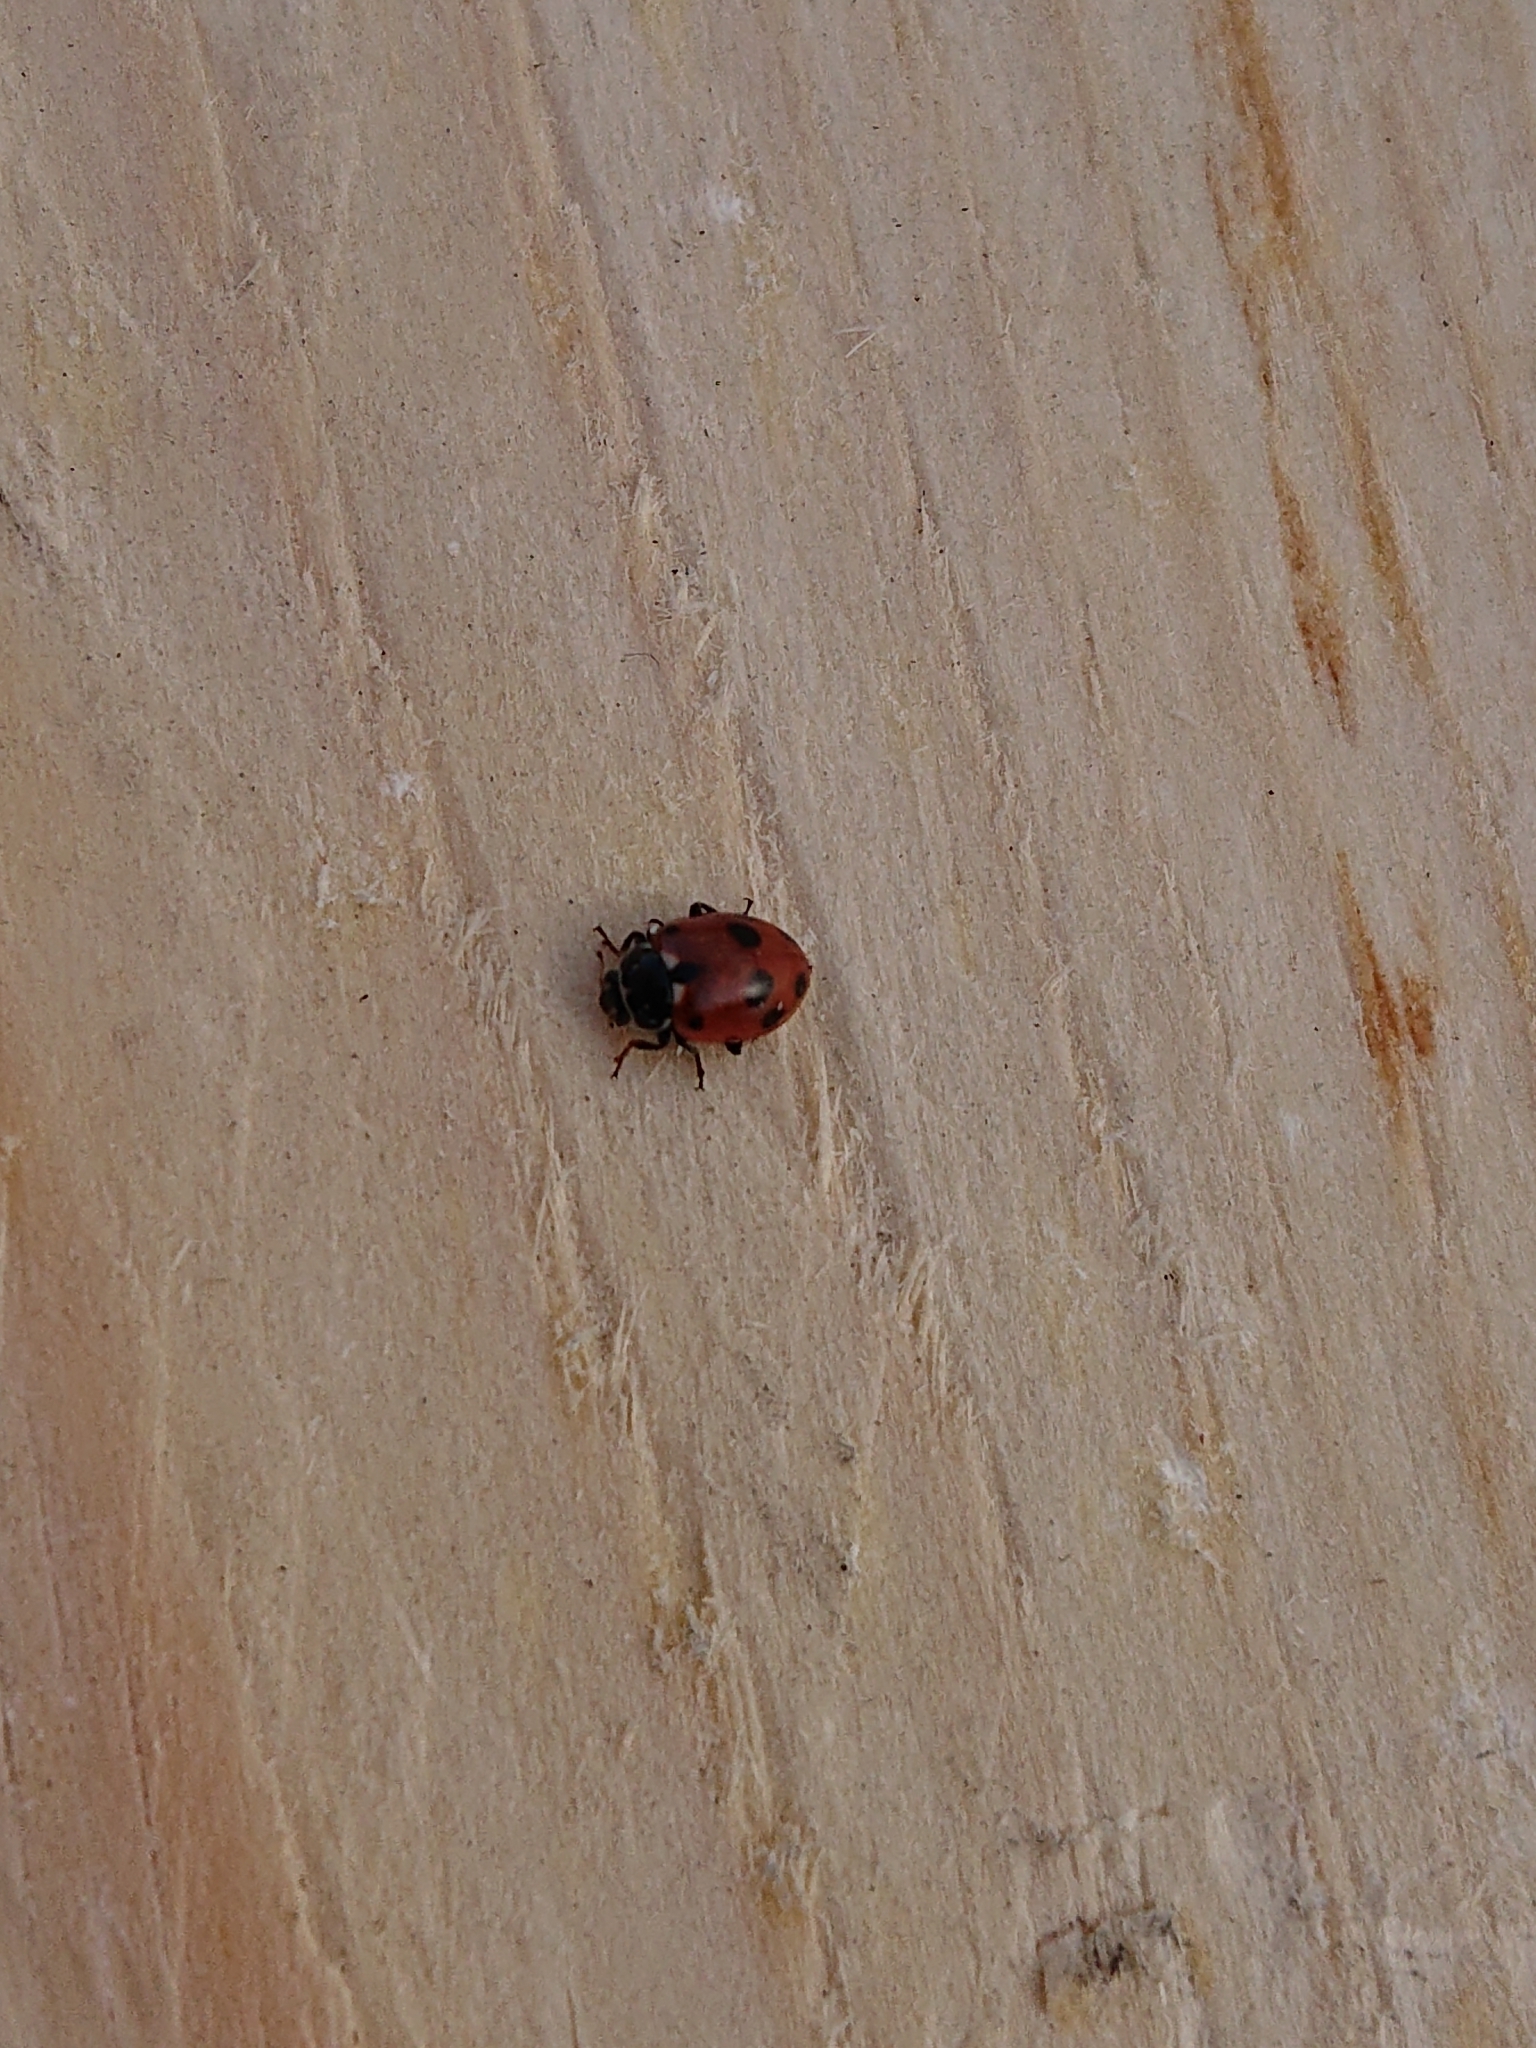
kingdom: Animalia
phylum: Arthropoda
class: Insecta
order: Coleoptera
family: Coccinellidae
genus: Hippodamia
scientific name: Hippodamia variegata
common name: Ladybird beetle
